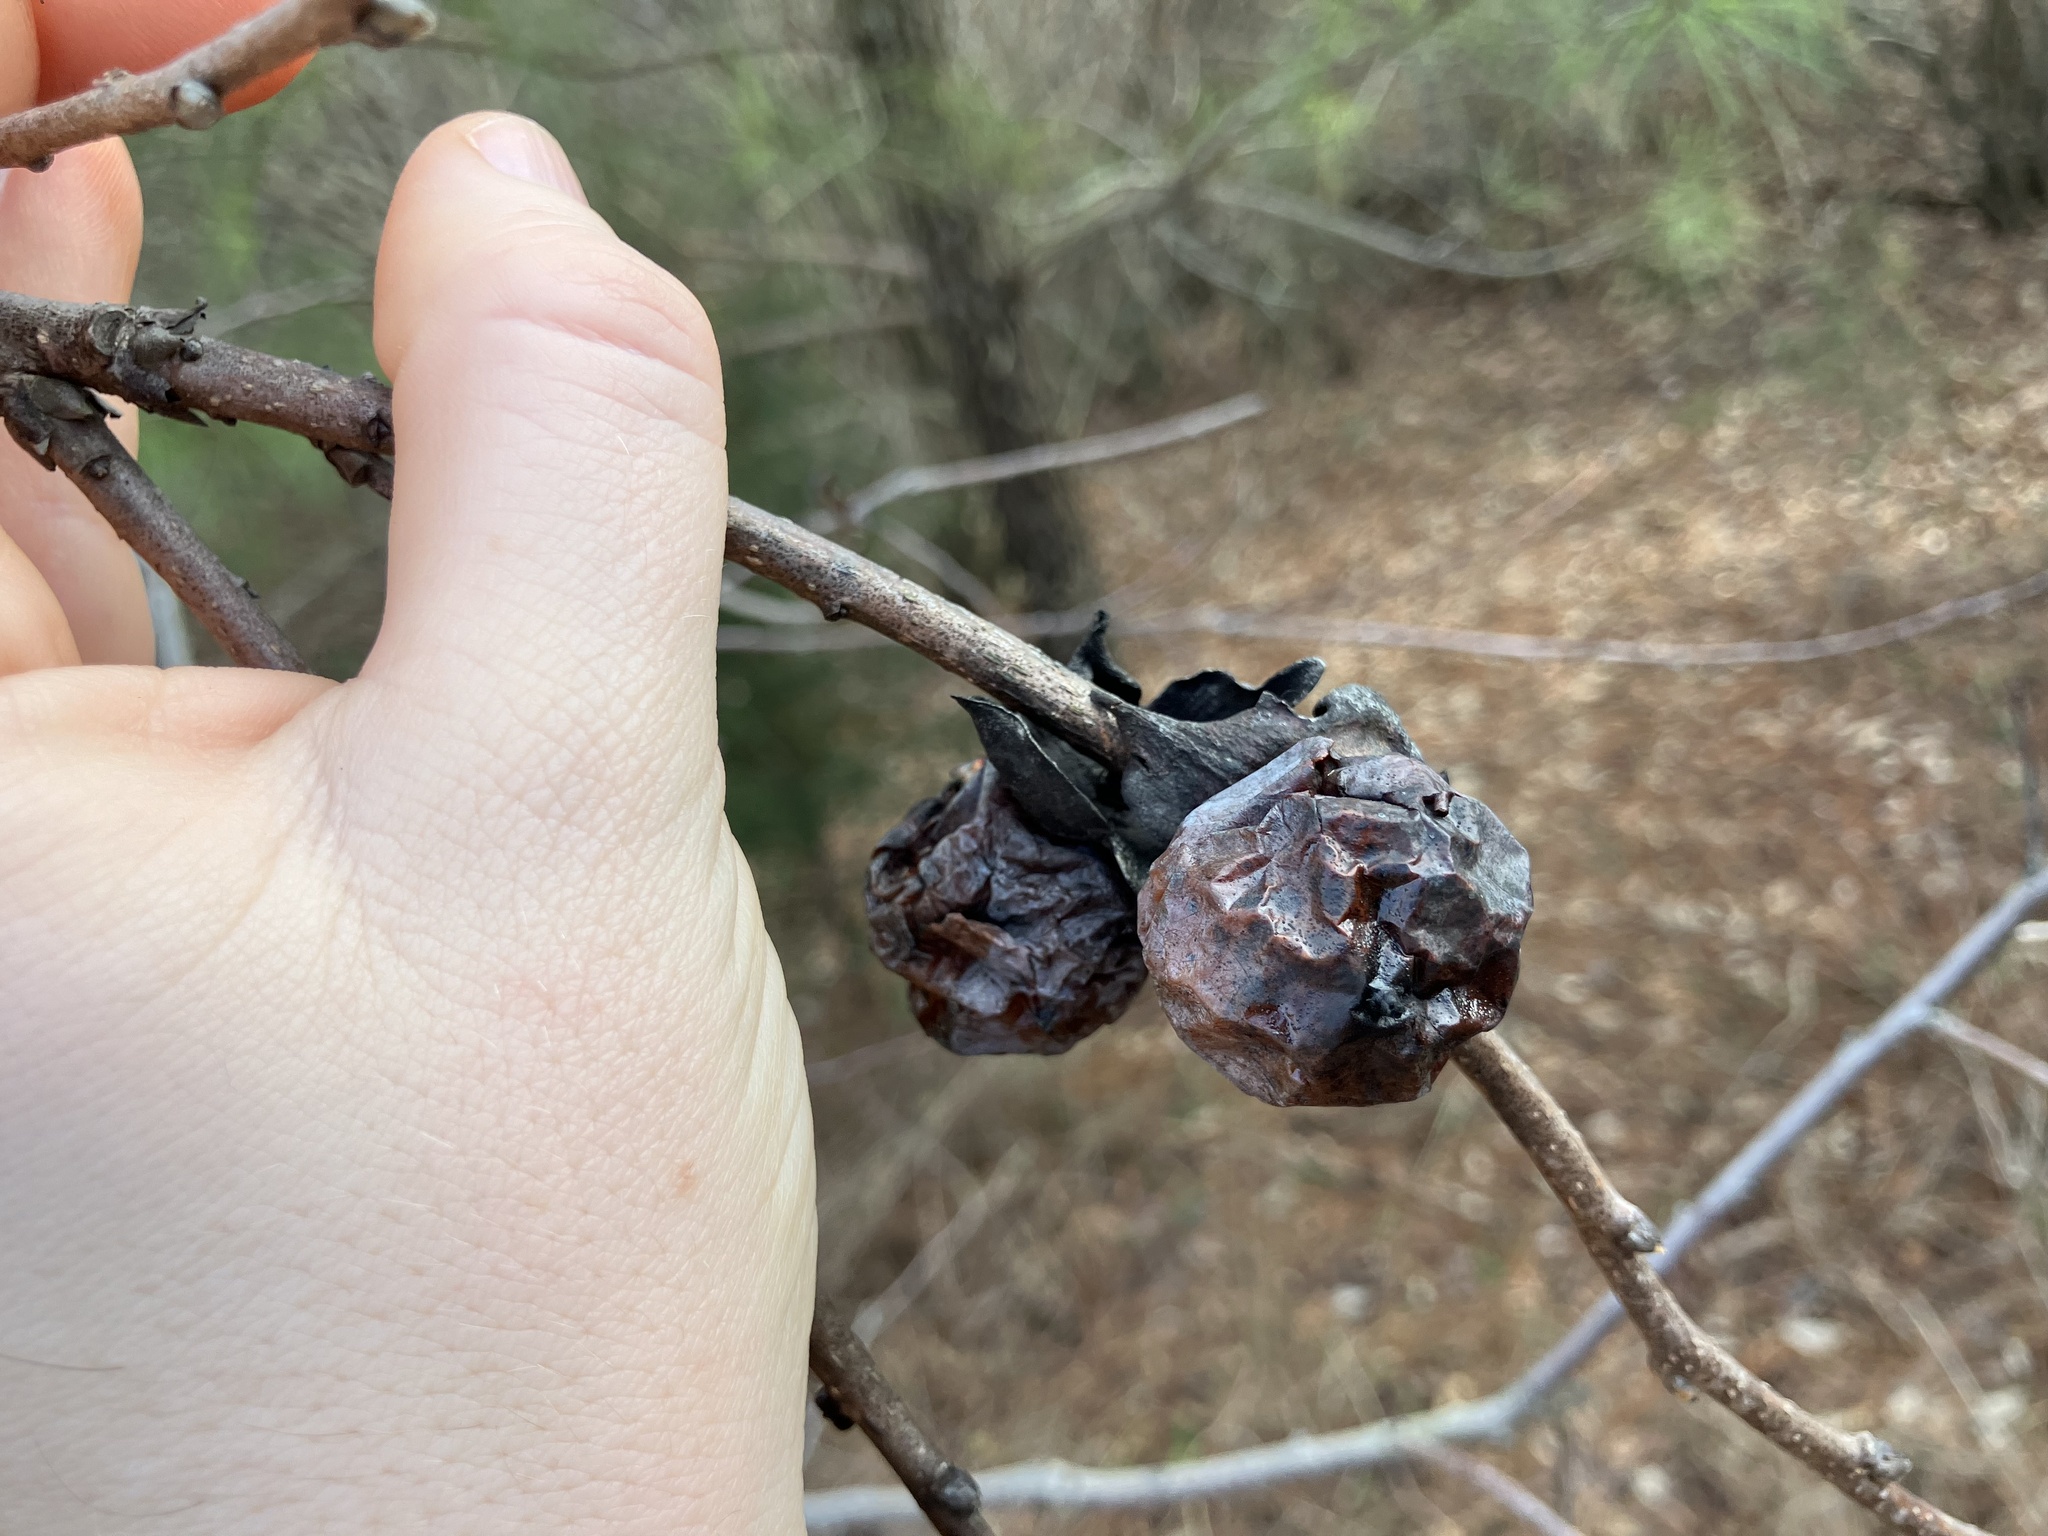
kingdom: Plantae
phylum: Tracheophyta
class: Magnoliopsida
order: Ericales
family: Ebenaceae
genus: Diospyros
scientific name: Diospyros virginiana
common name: Persimmon
